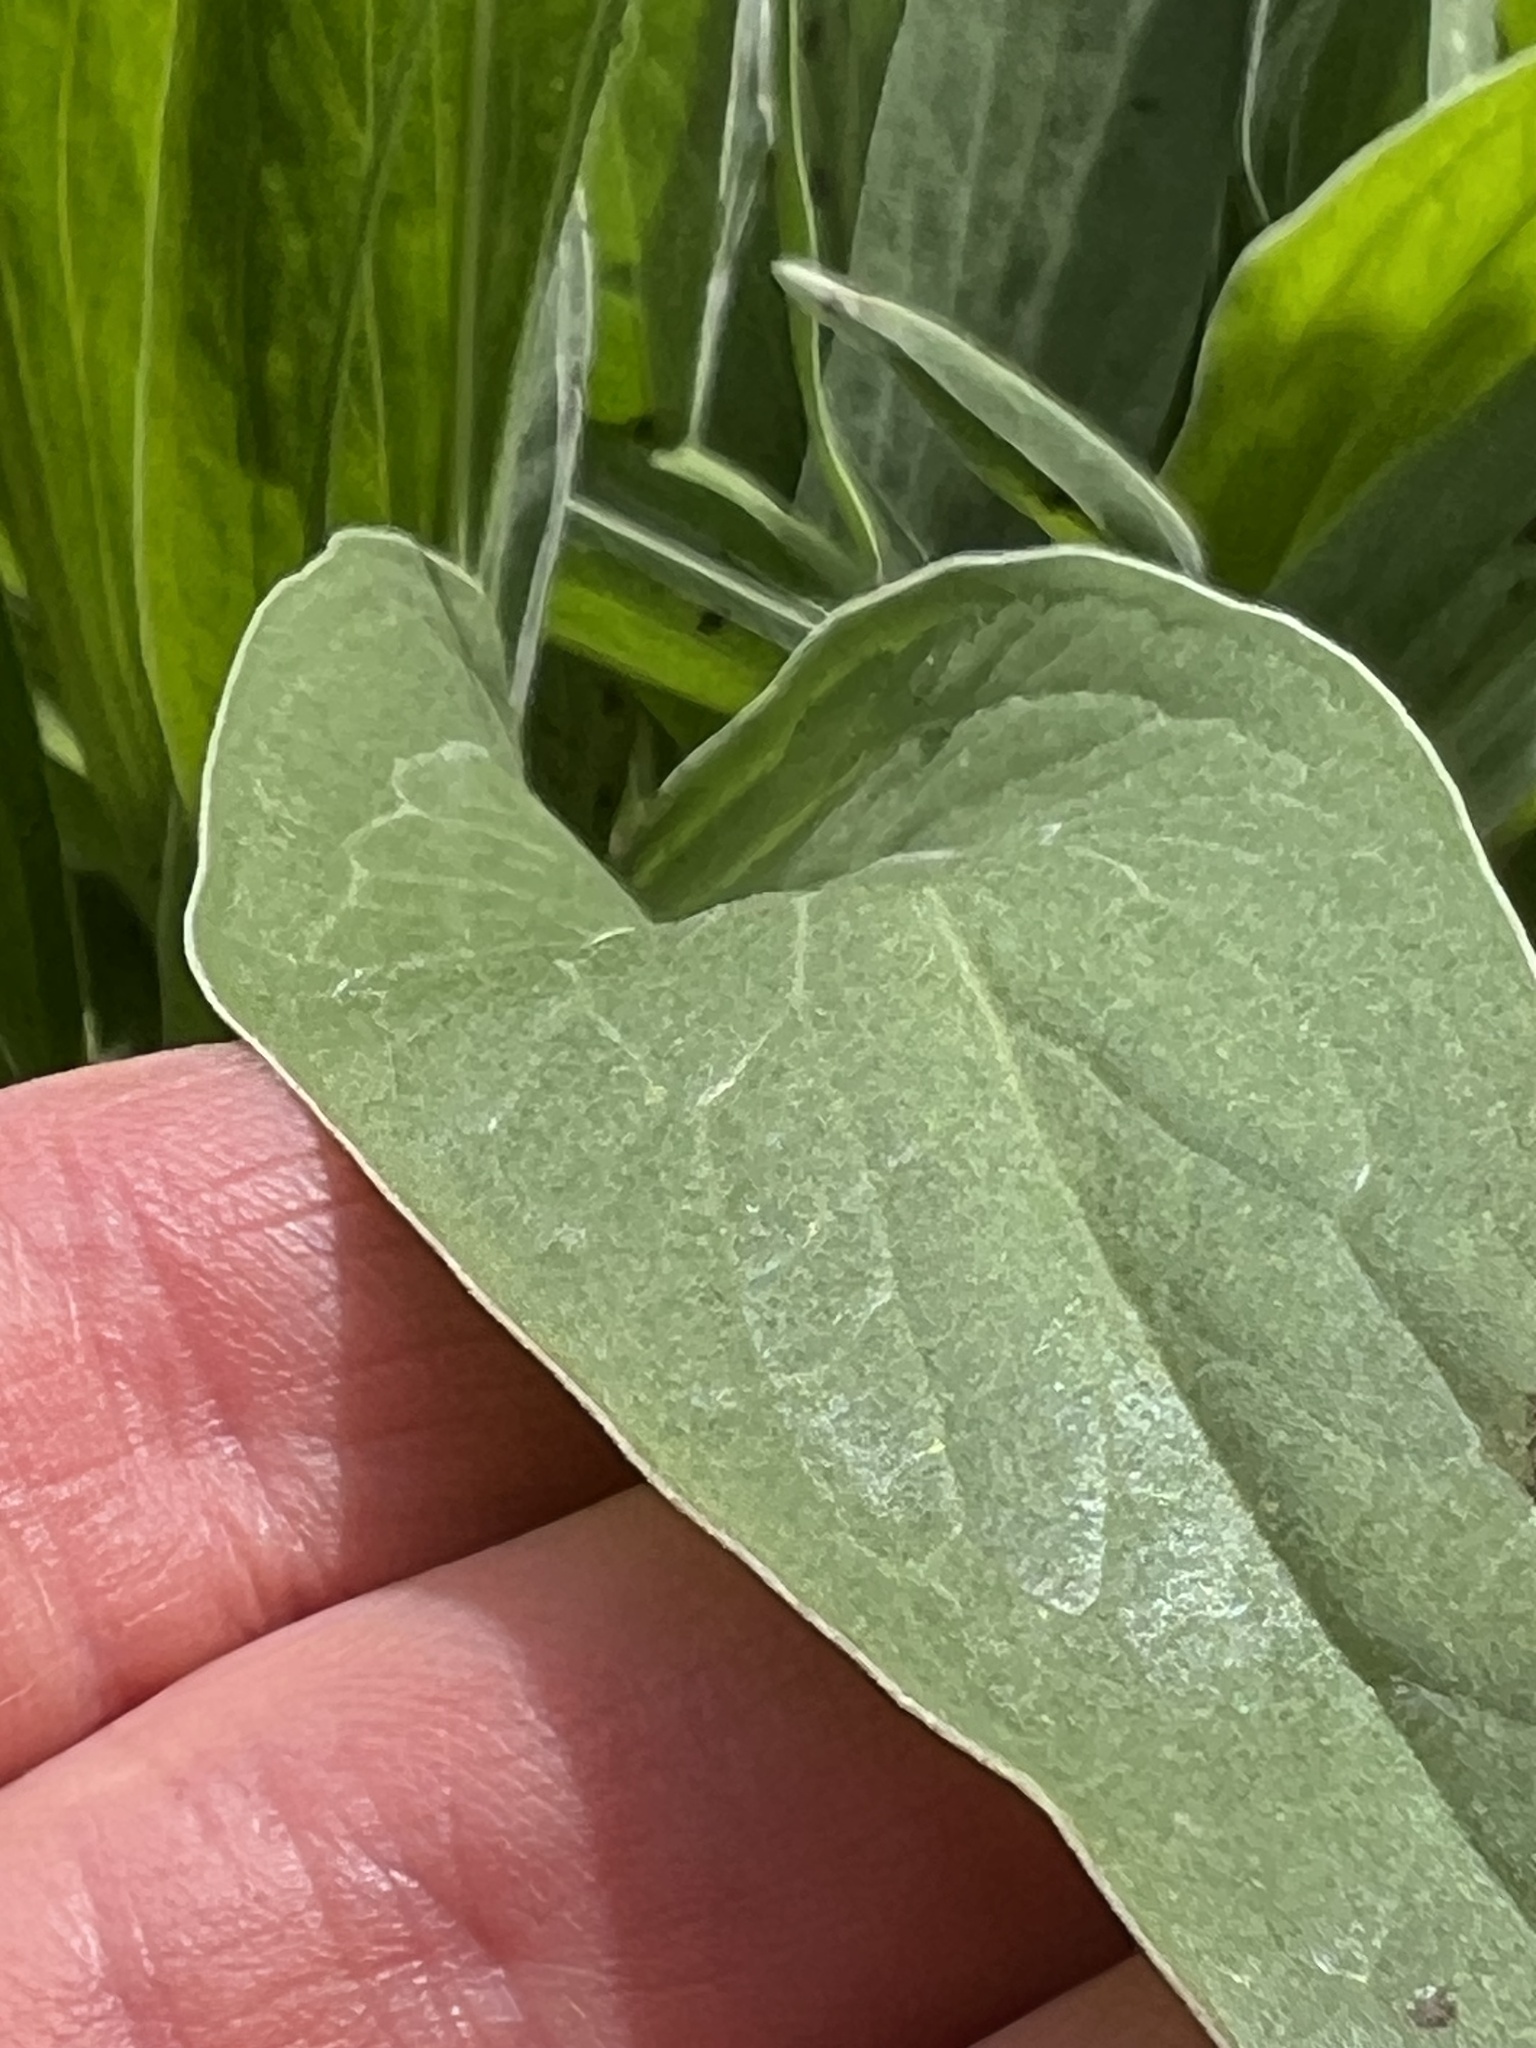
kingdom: Plantae
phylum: Tracheophyta
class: Magnoliopsida
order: Dipsacales
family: Caprifoliaceae
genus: Valeriana
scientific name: Valeriana edulis
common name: Taproot valerian
